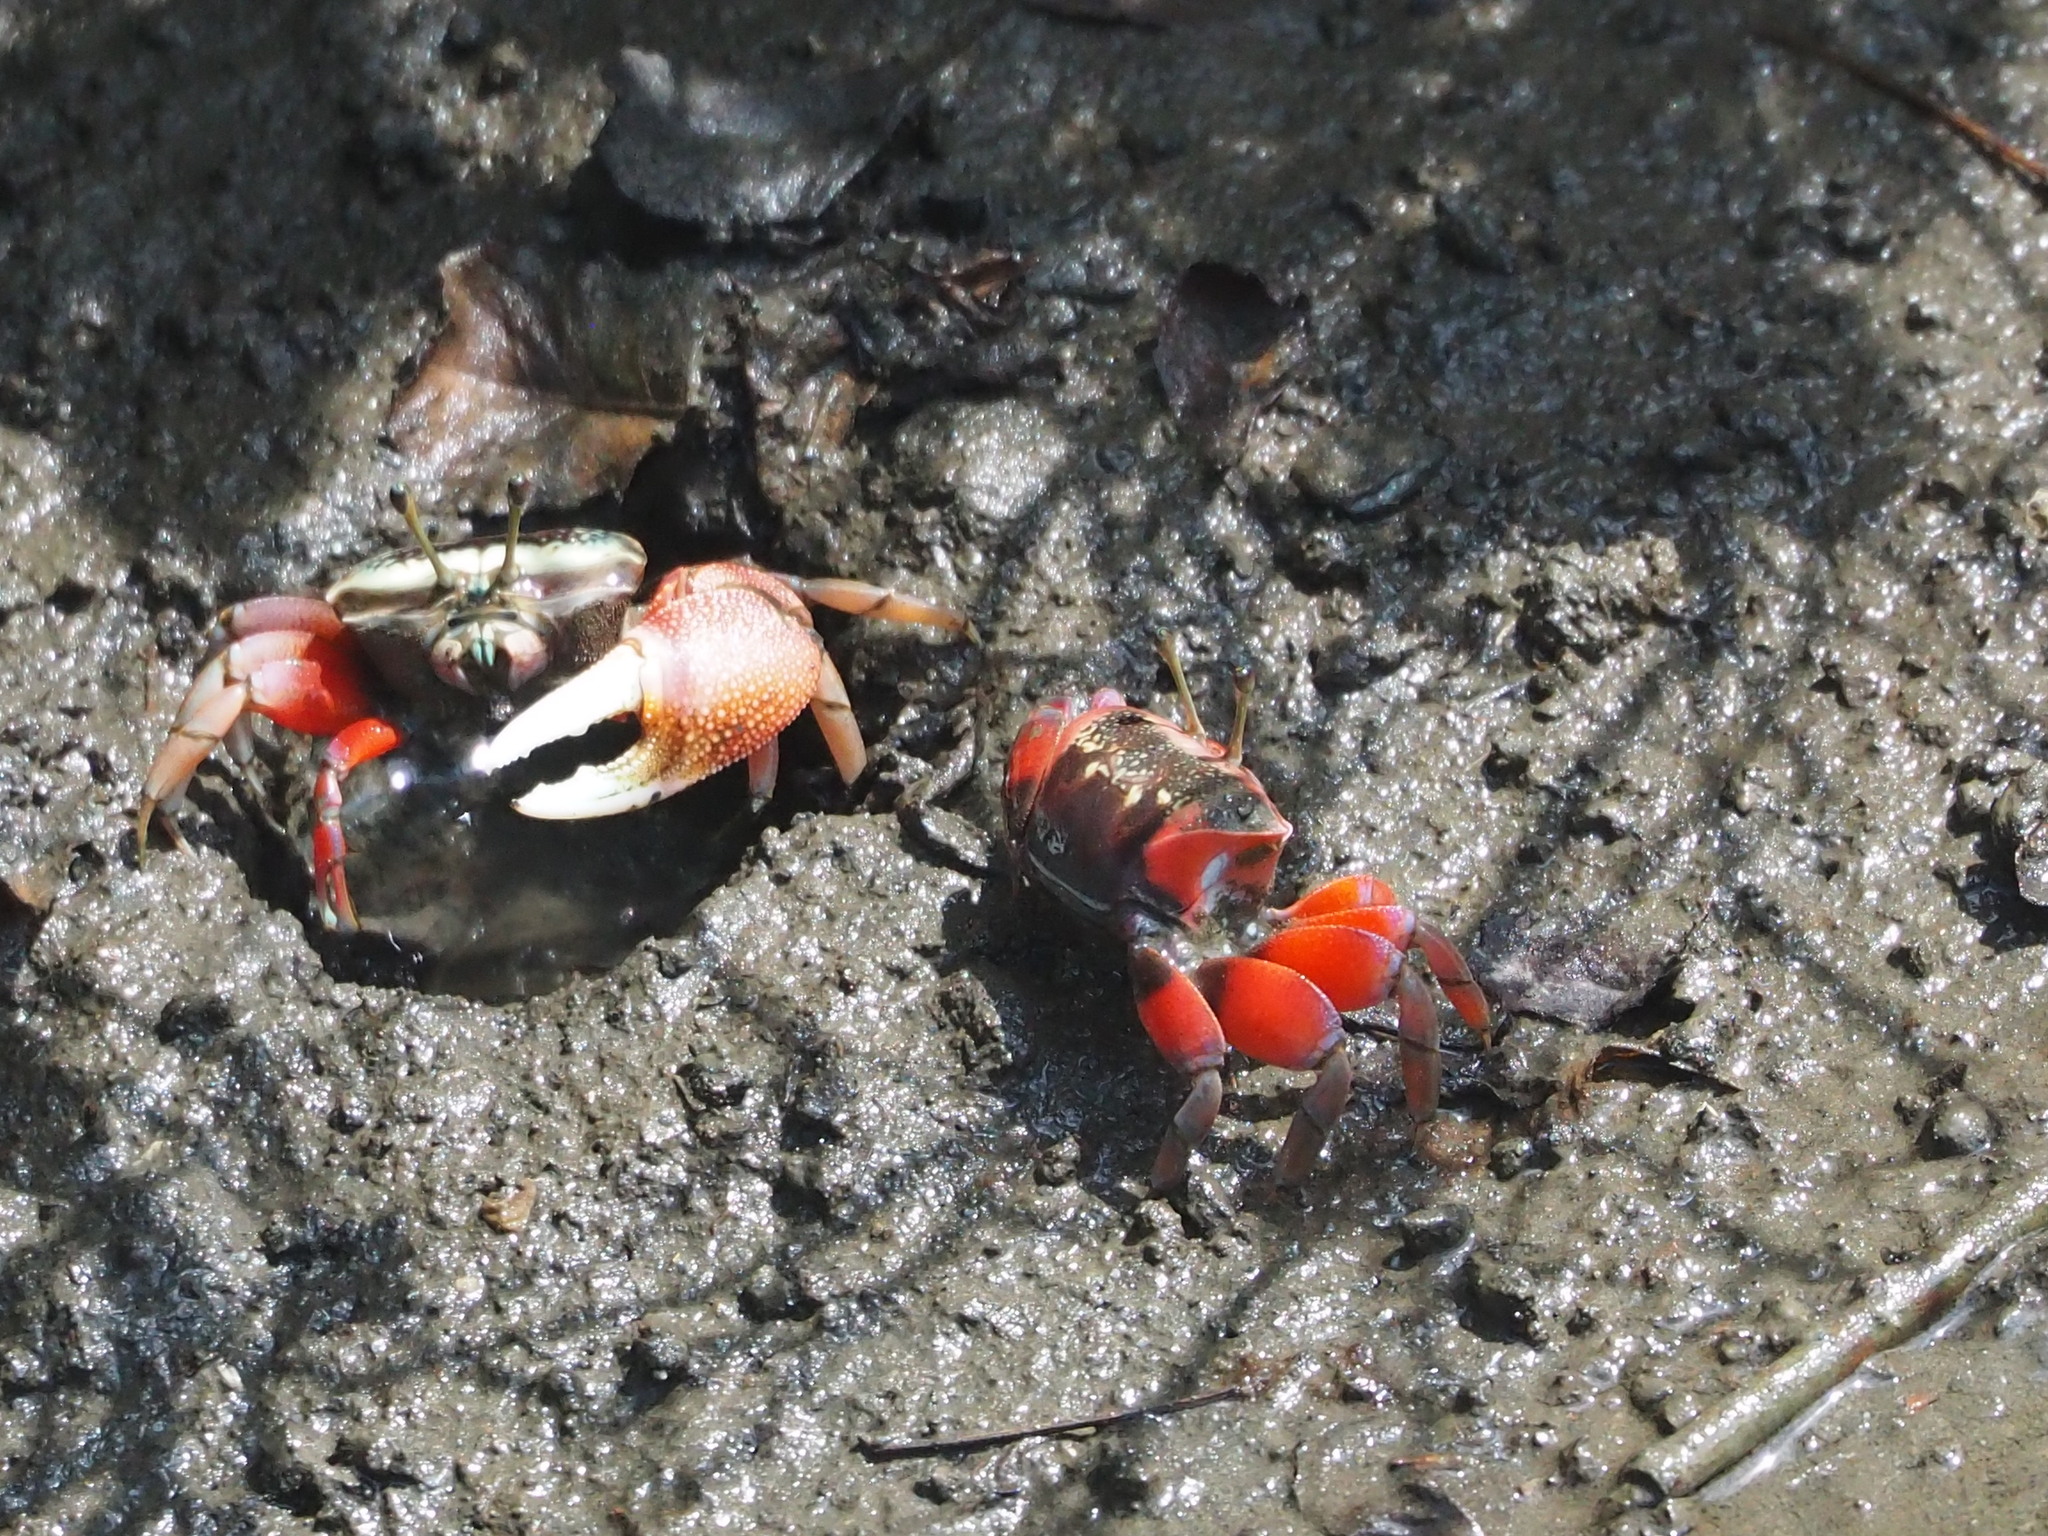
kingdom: Animalia
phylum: Arthropoda
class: Malacostraca
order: Decapoda
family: Ocypodidae
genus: Tubuca
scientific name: Tubuca arcuata
